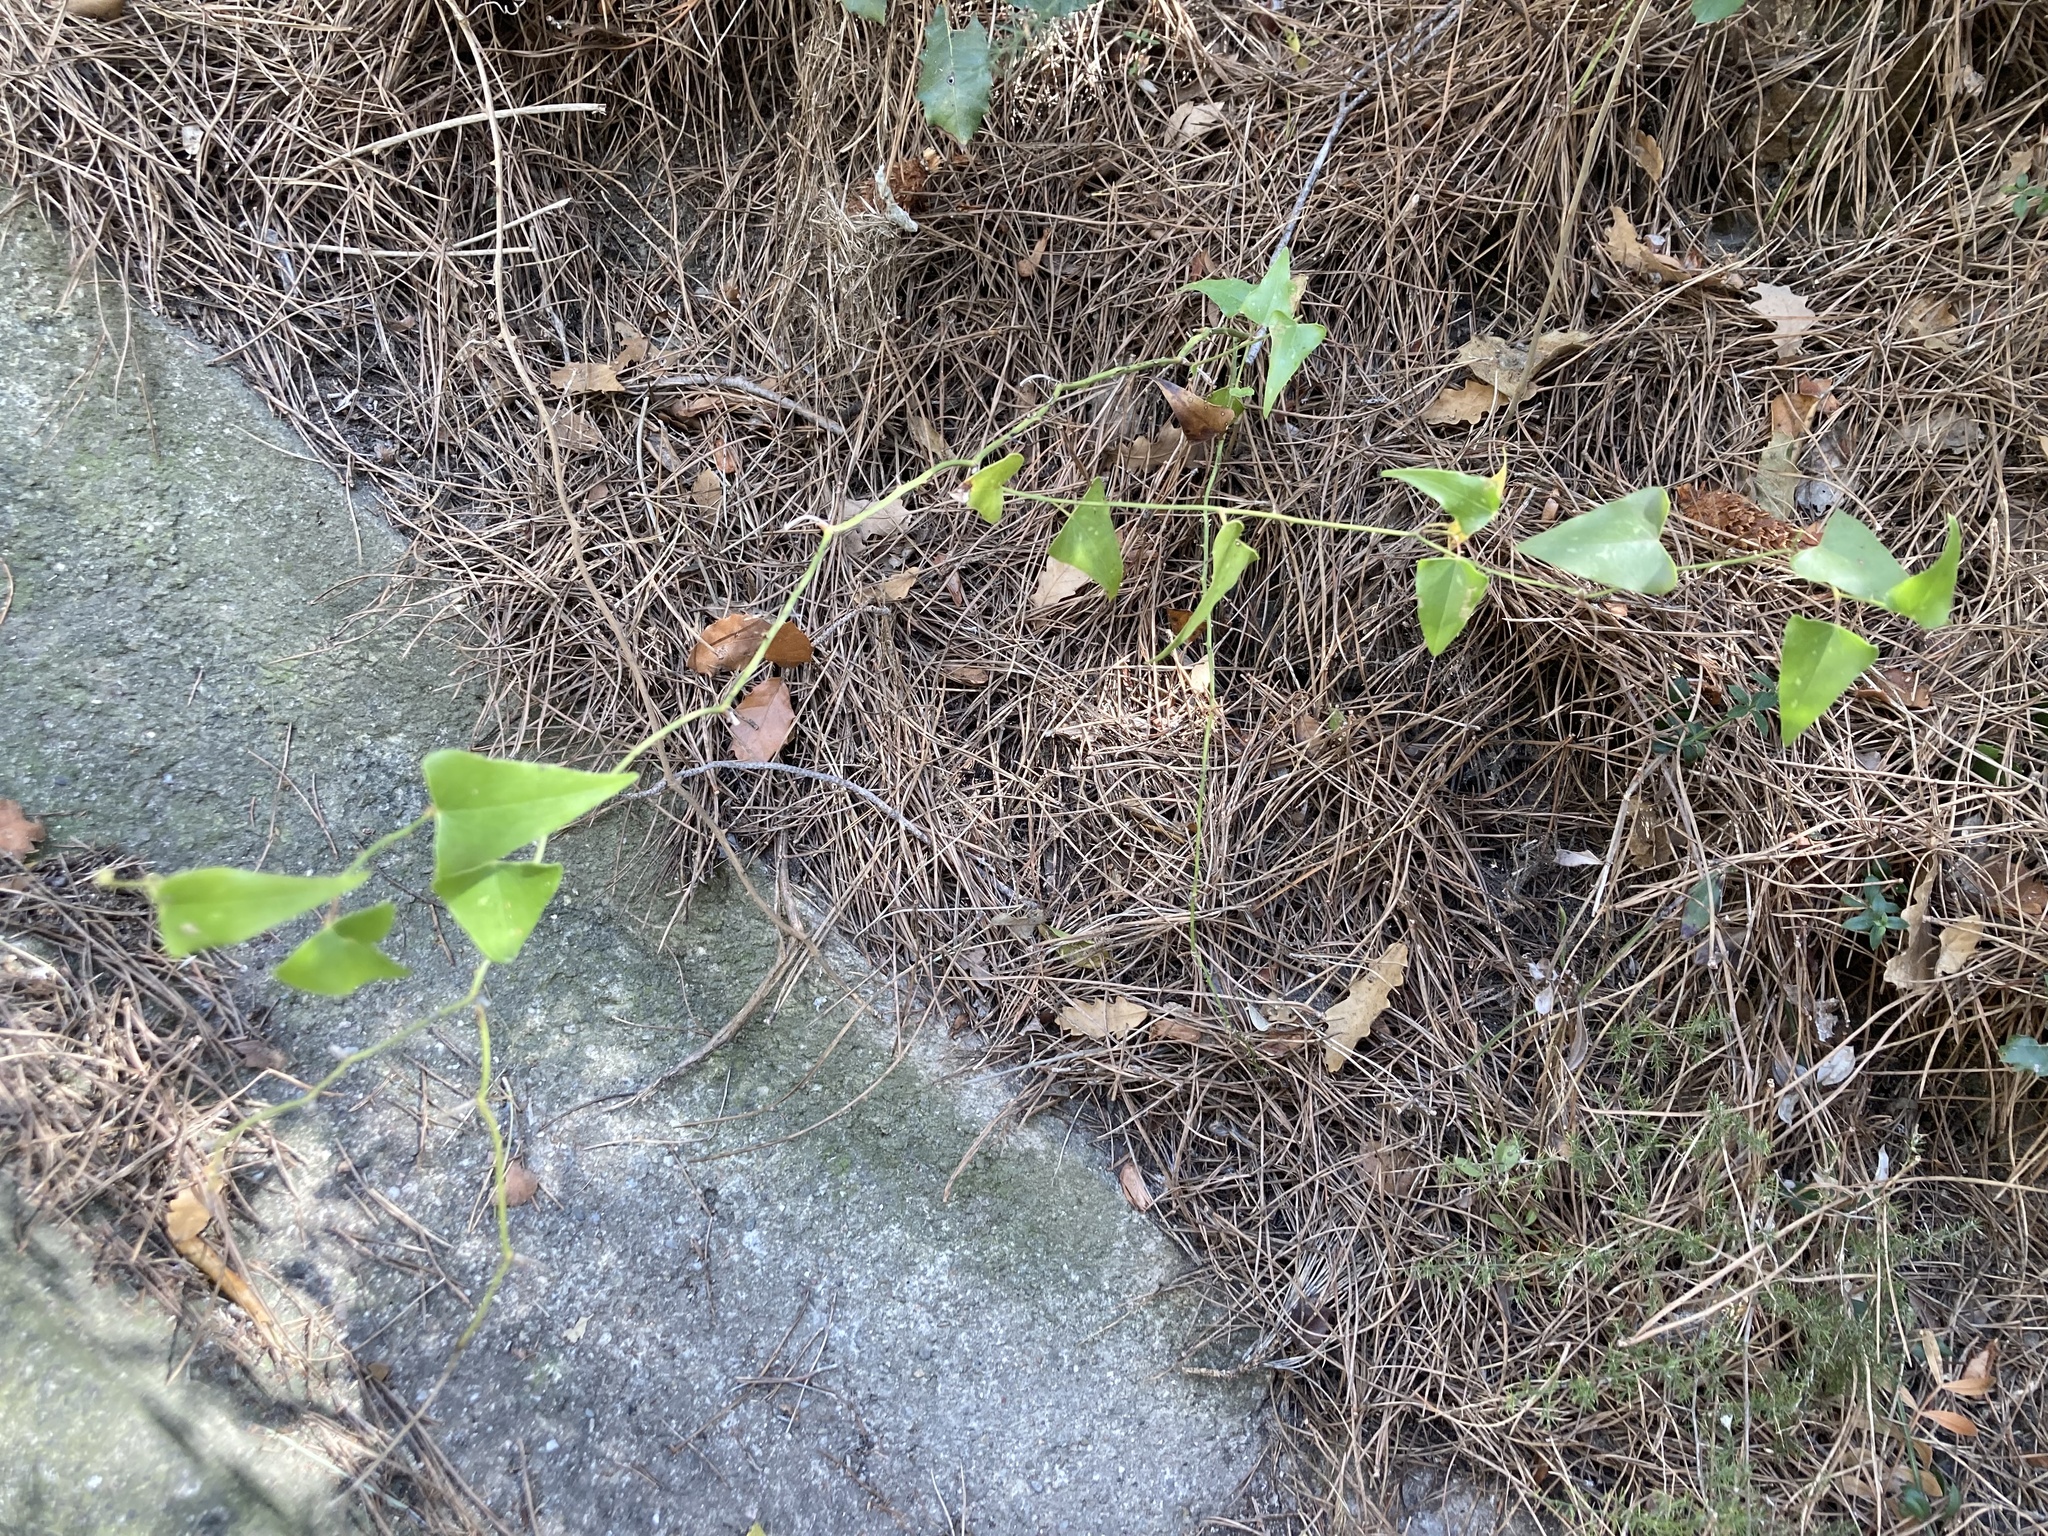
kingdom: Plantae
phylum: Tracheophyta
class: Liliopsida
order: Liliales
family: Smilacaceae
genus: Smilax
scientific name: Smilax aspera
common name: Common smilax
